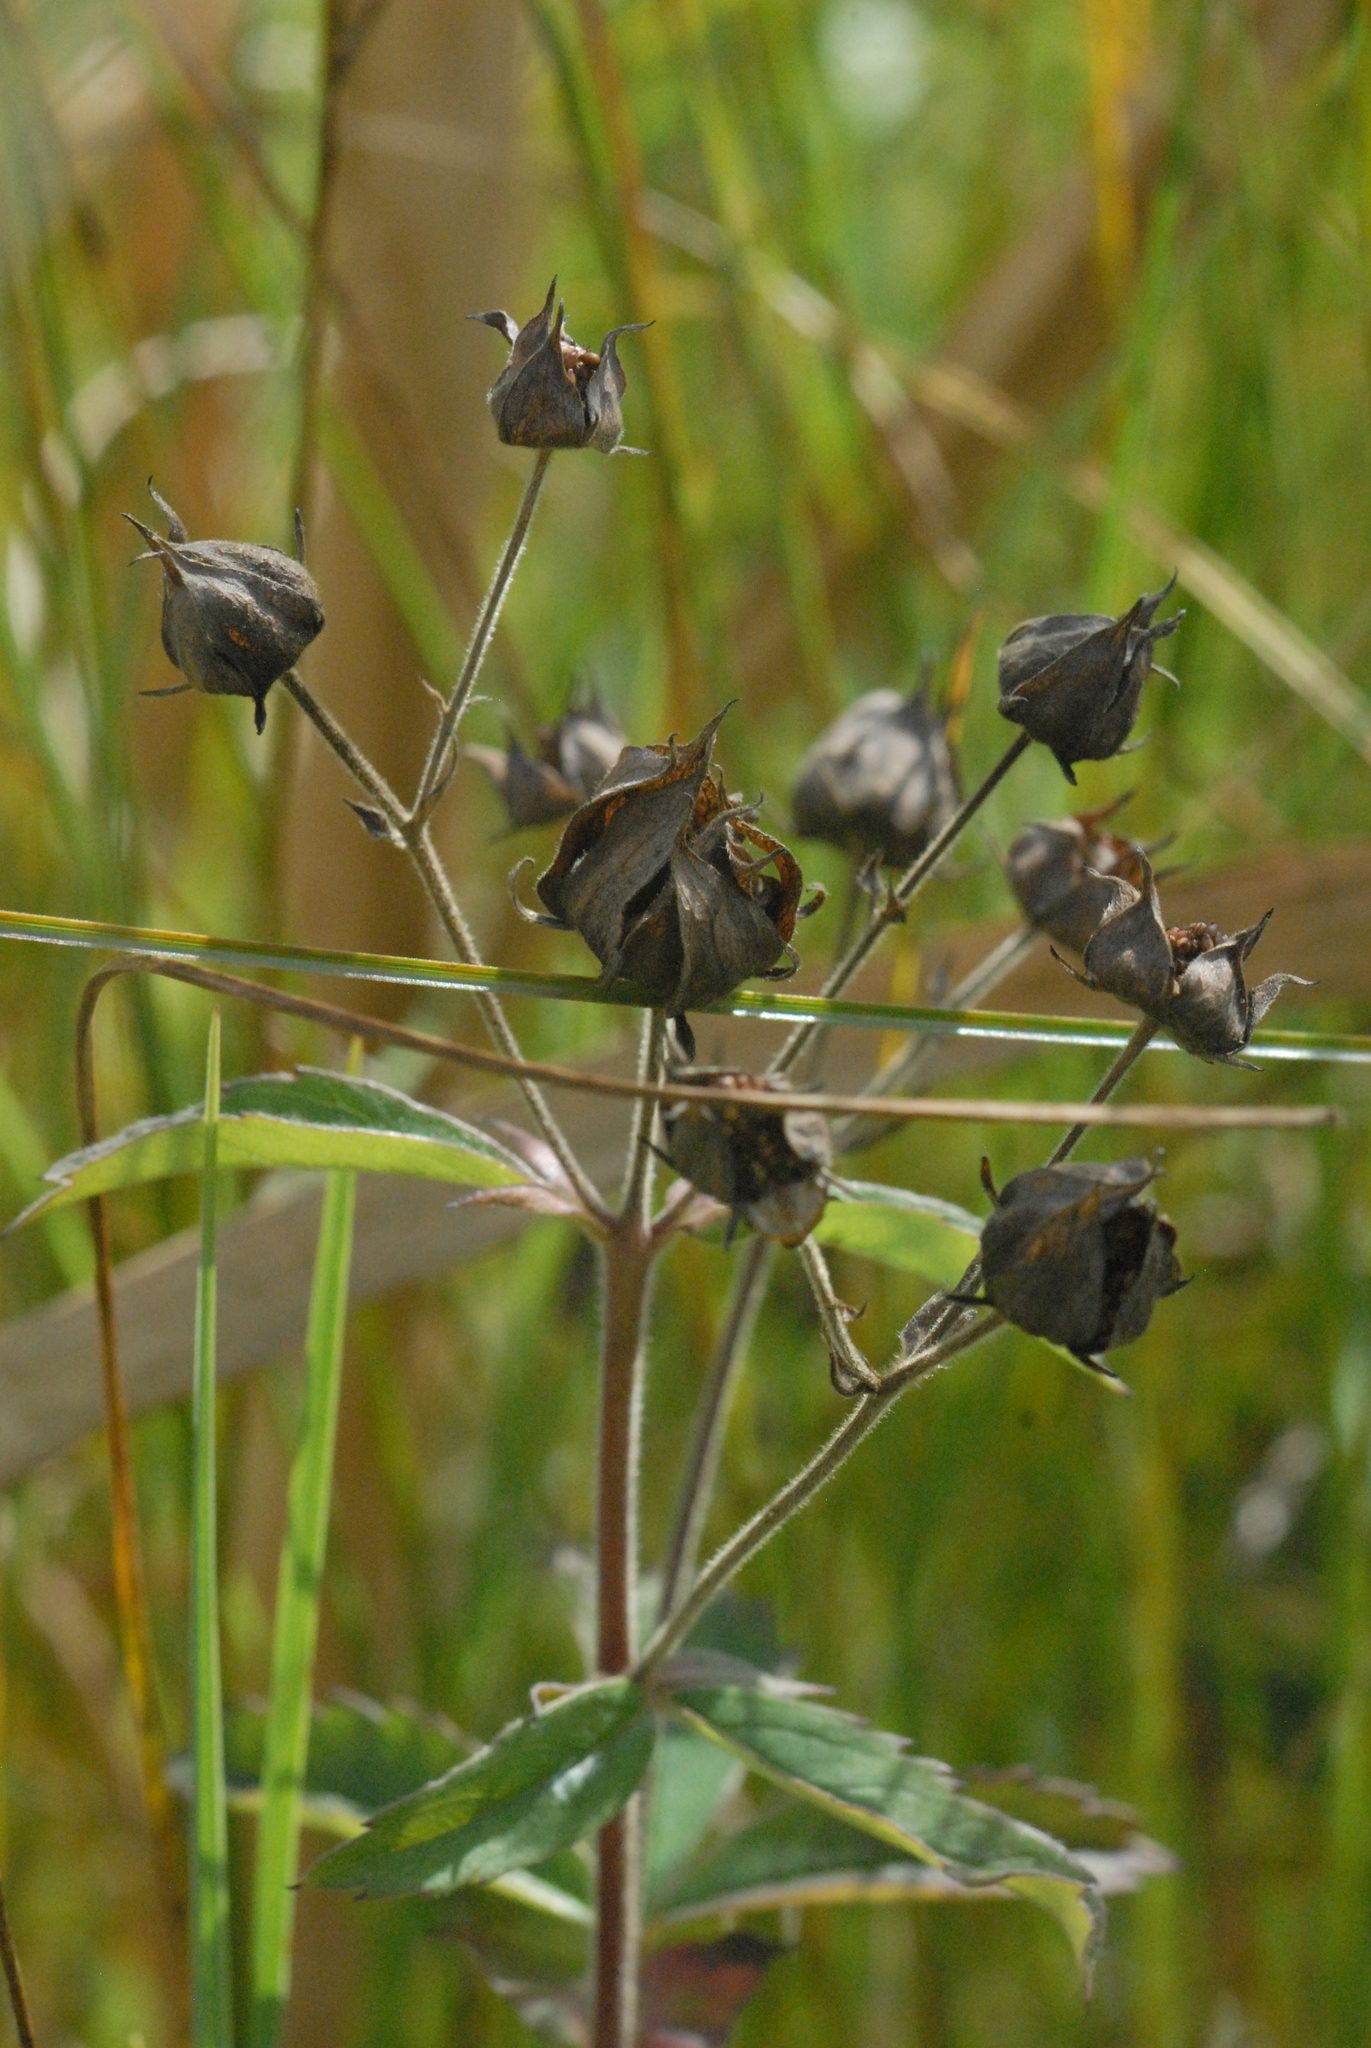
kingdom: Plantae
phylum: Tracheophyta
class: Magnoliopsida
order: Rosales
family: Rosaceae
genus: Comarum
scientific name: Comarum palustre
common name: Marsh cinquefoil
